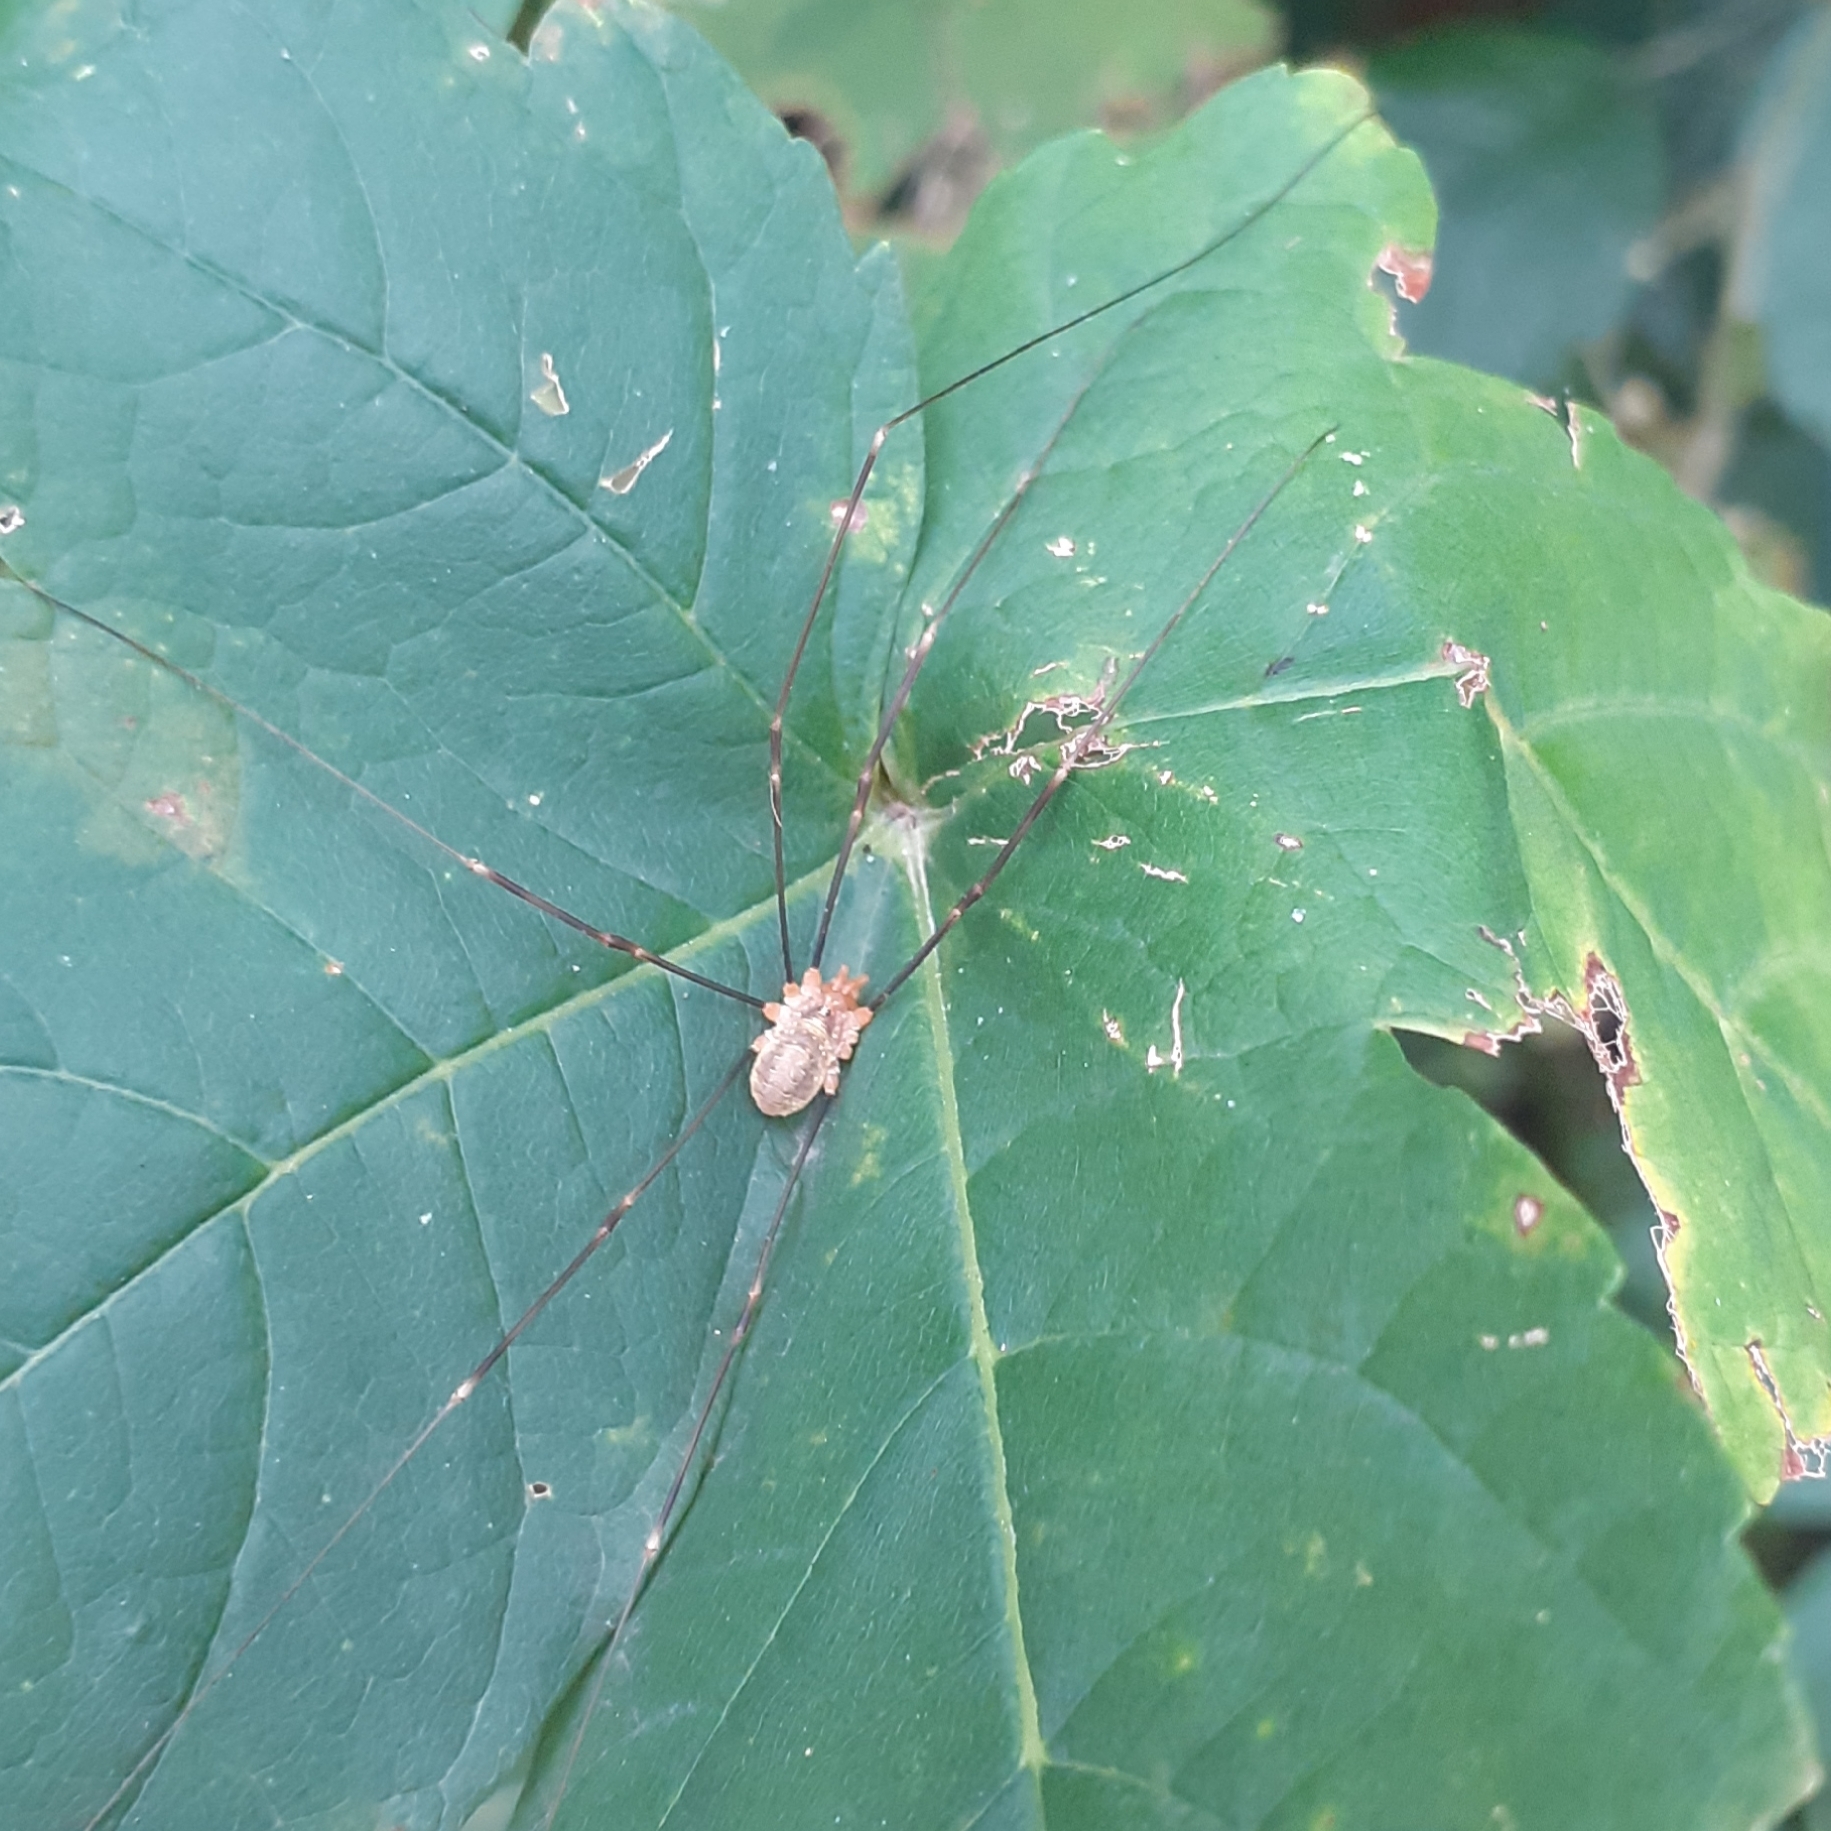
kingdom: Animalia
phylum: Arthropoda
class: Arachnida
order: Opiliones
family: Phalangiidae
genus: Opilio
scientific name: Opilio canestrinii
